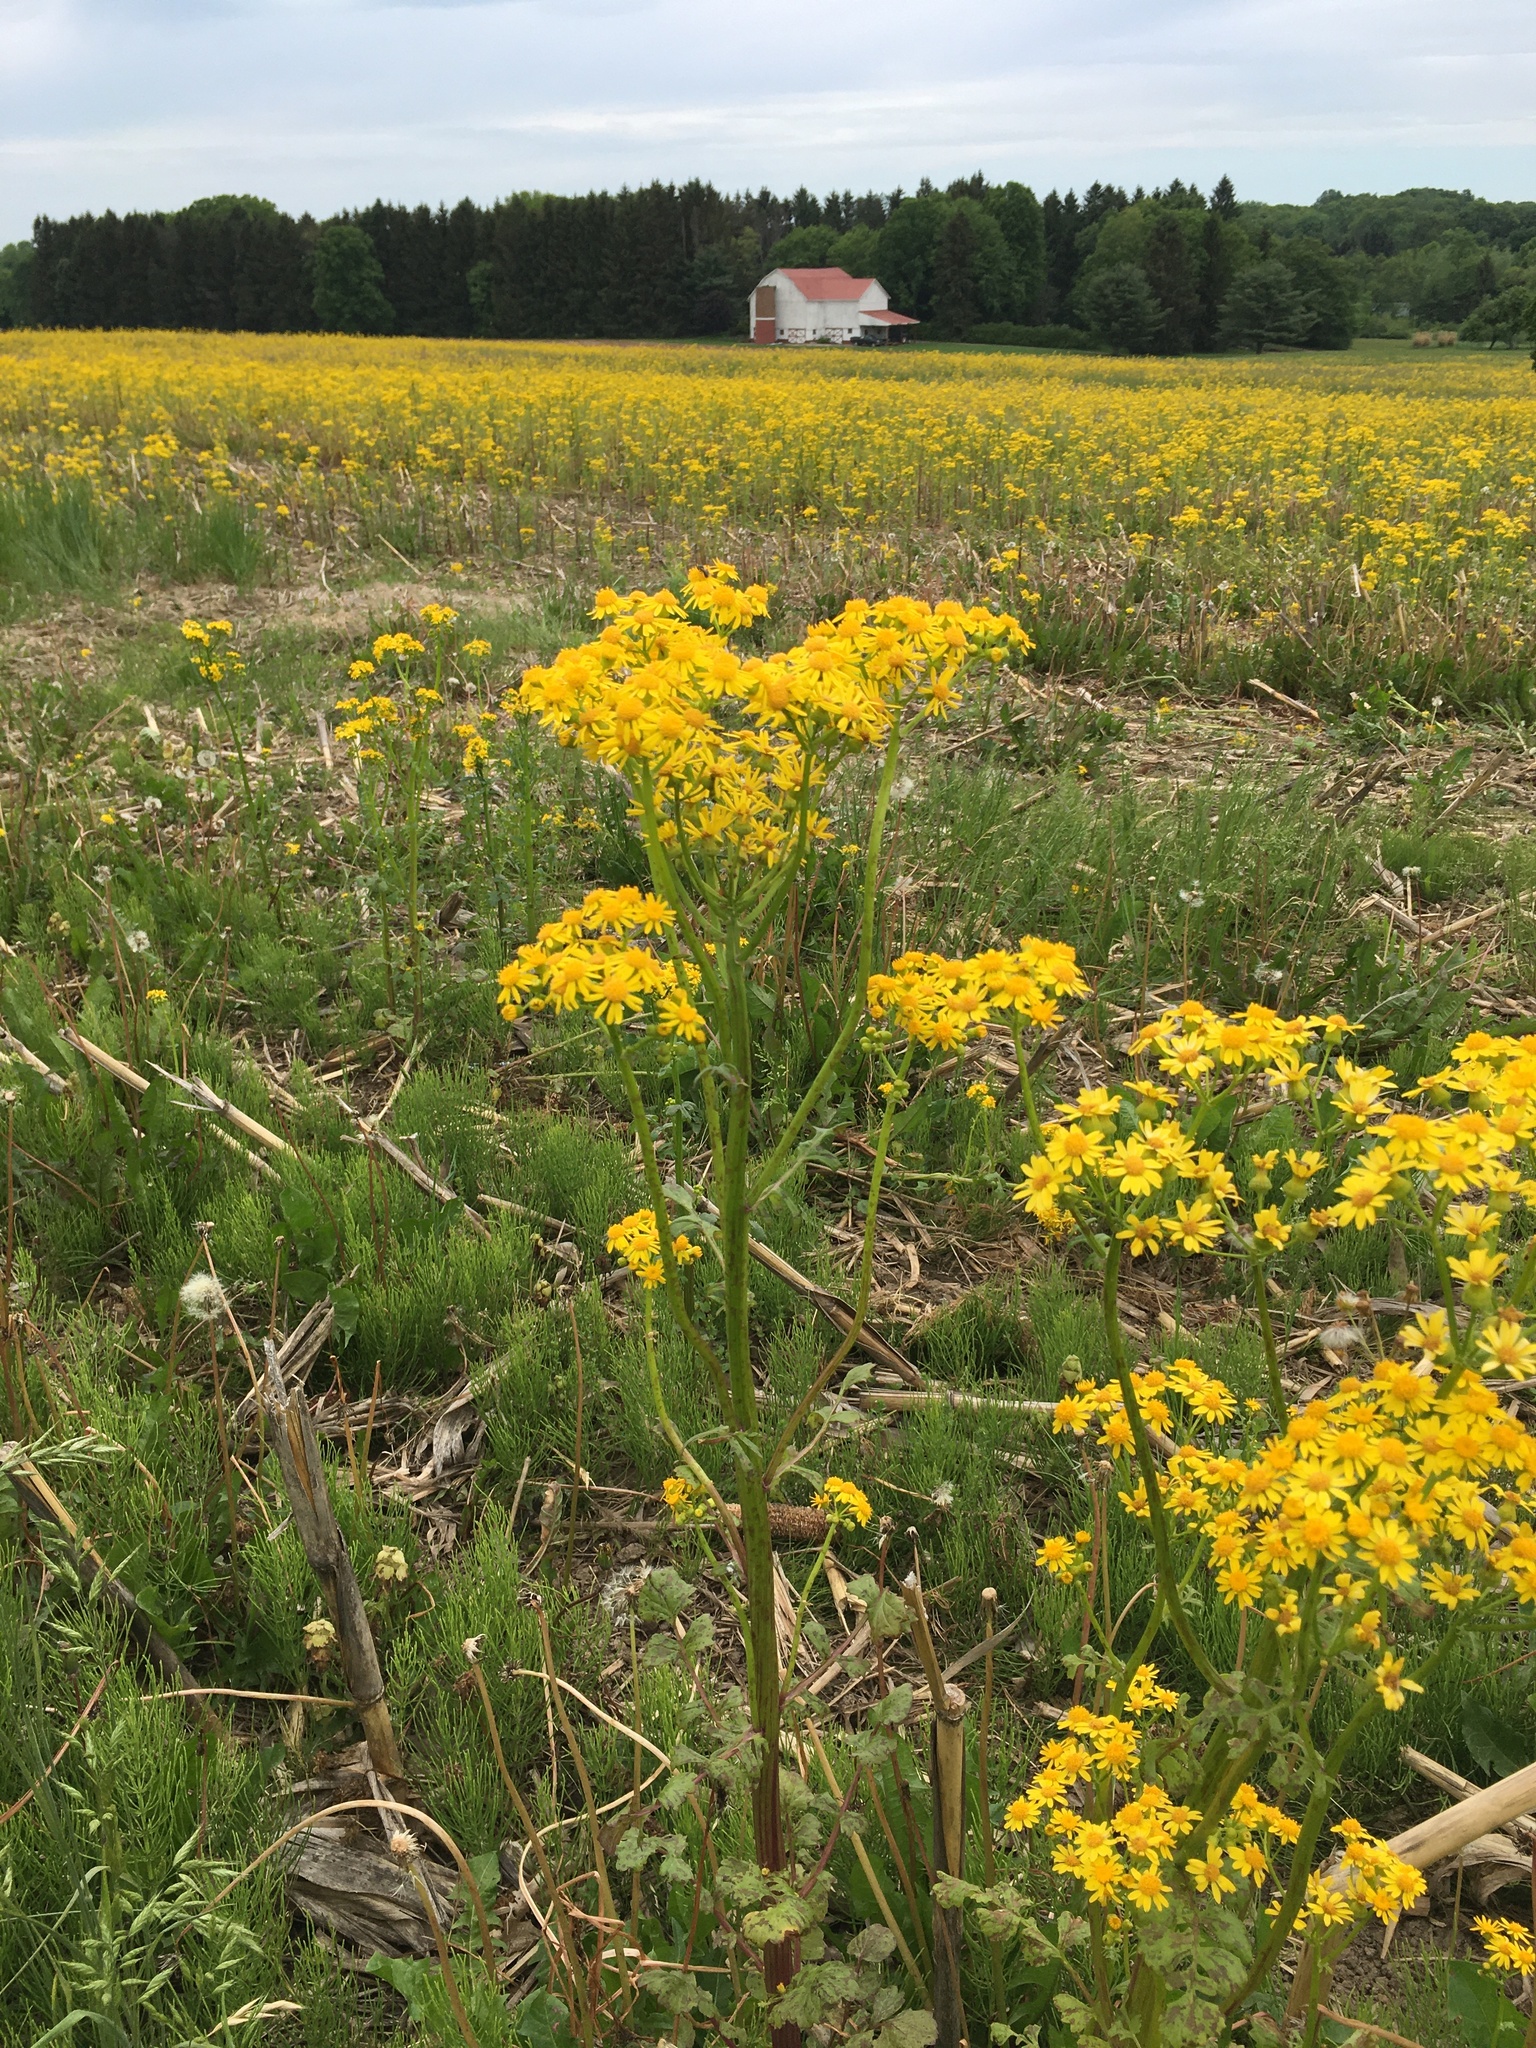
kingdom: Plantae
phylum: Tracheophyta
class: Magnoliopsida
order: Asterales
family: Asteraceae
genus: Packera
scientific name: Packera glabella
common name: Butterweed
